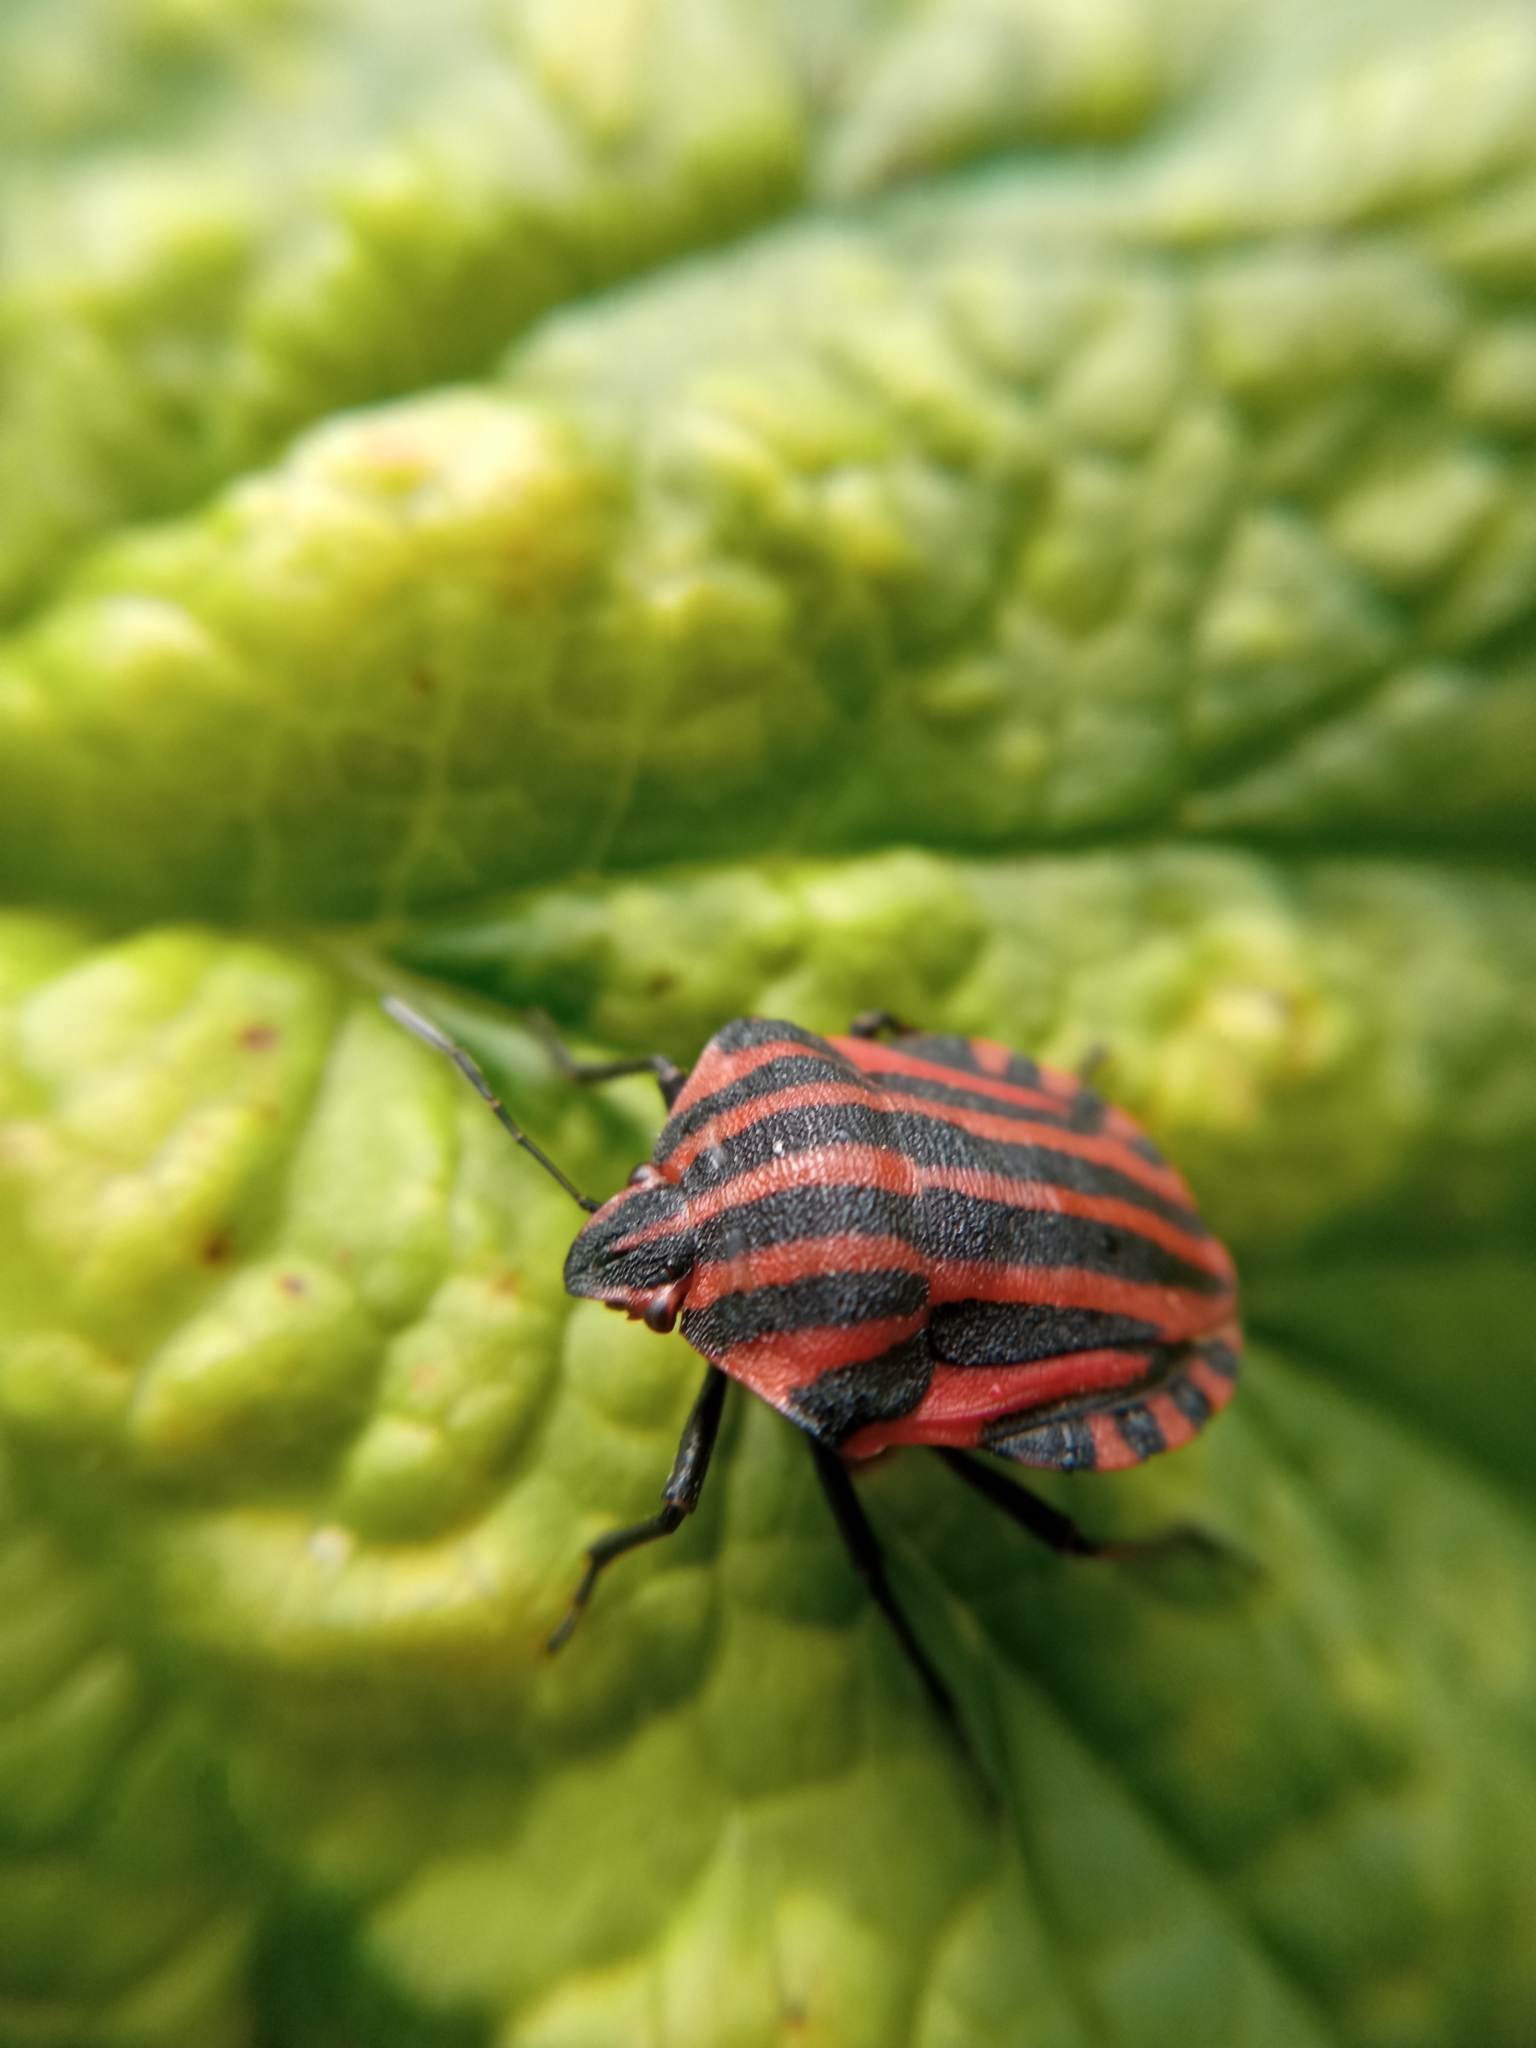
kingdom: Animalia
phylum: Arthropoda
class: Insecta
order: Hemiptera
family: Pentatomidae
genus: Graphosoma
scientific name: Graphosoma italicum
